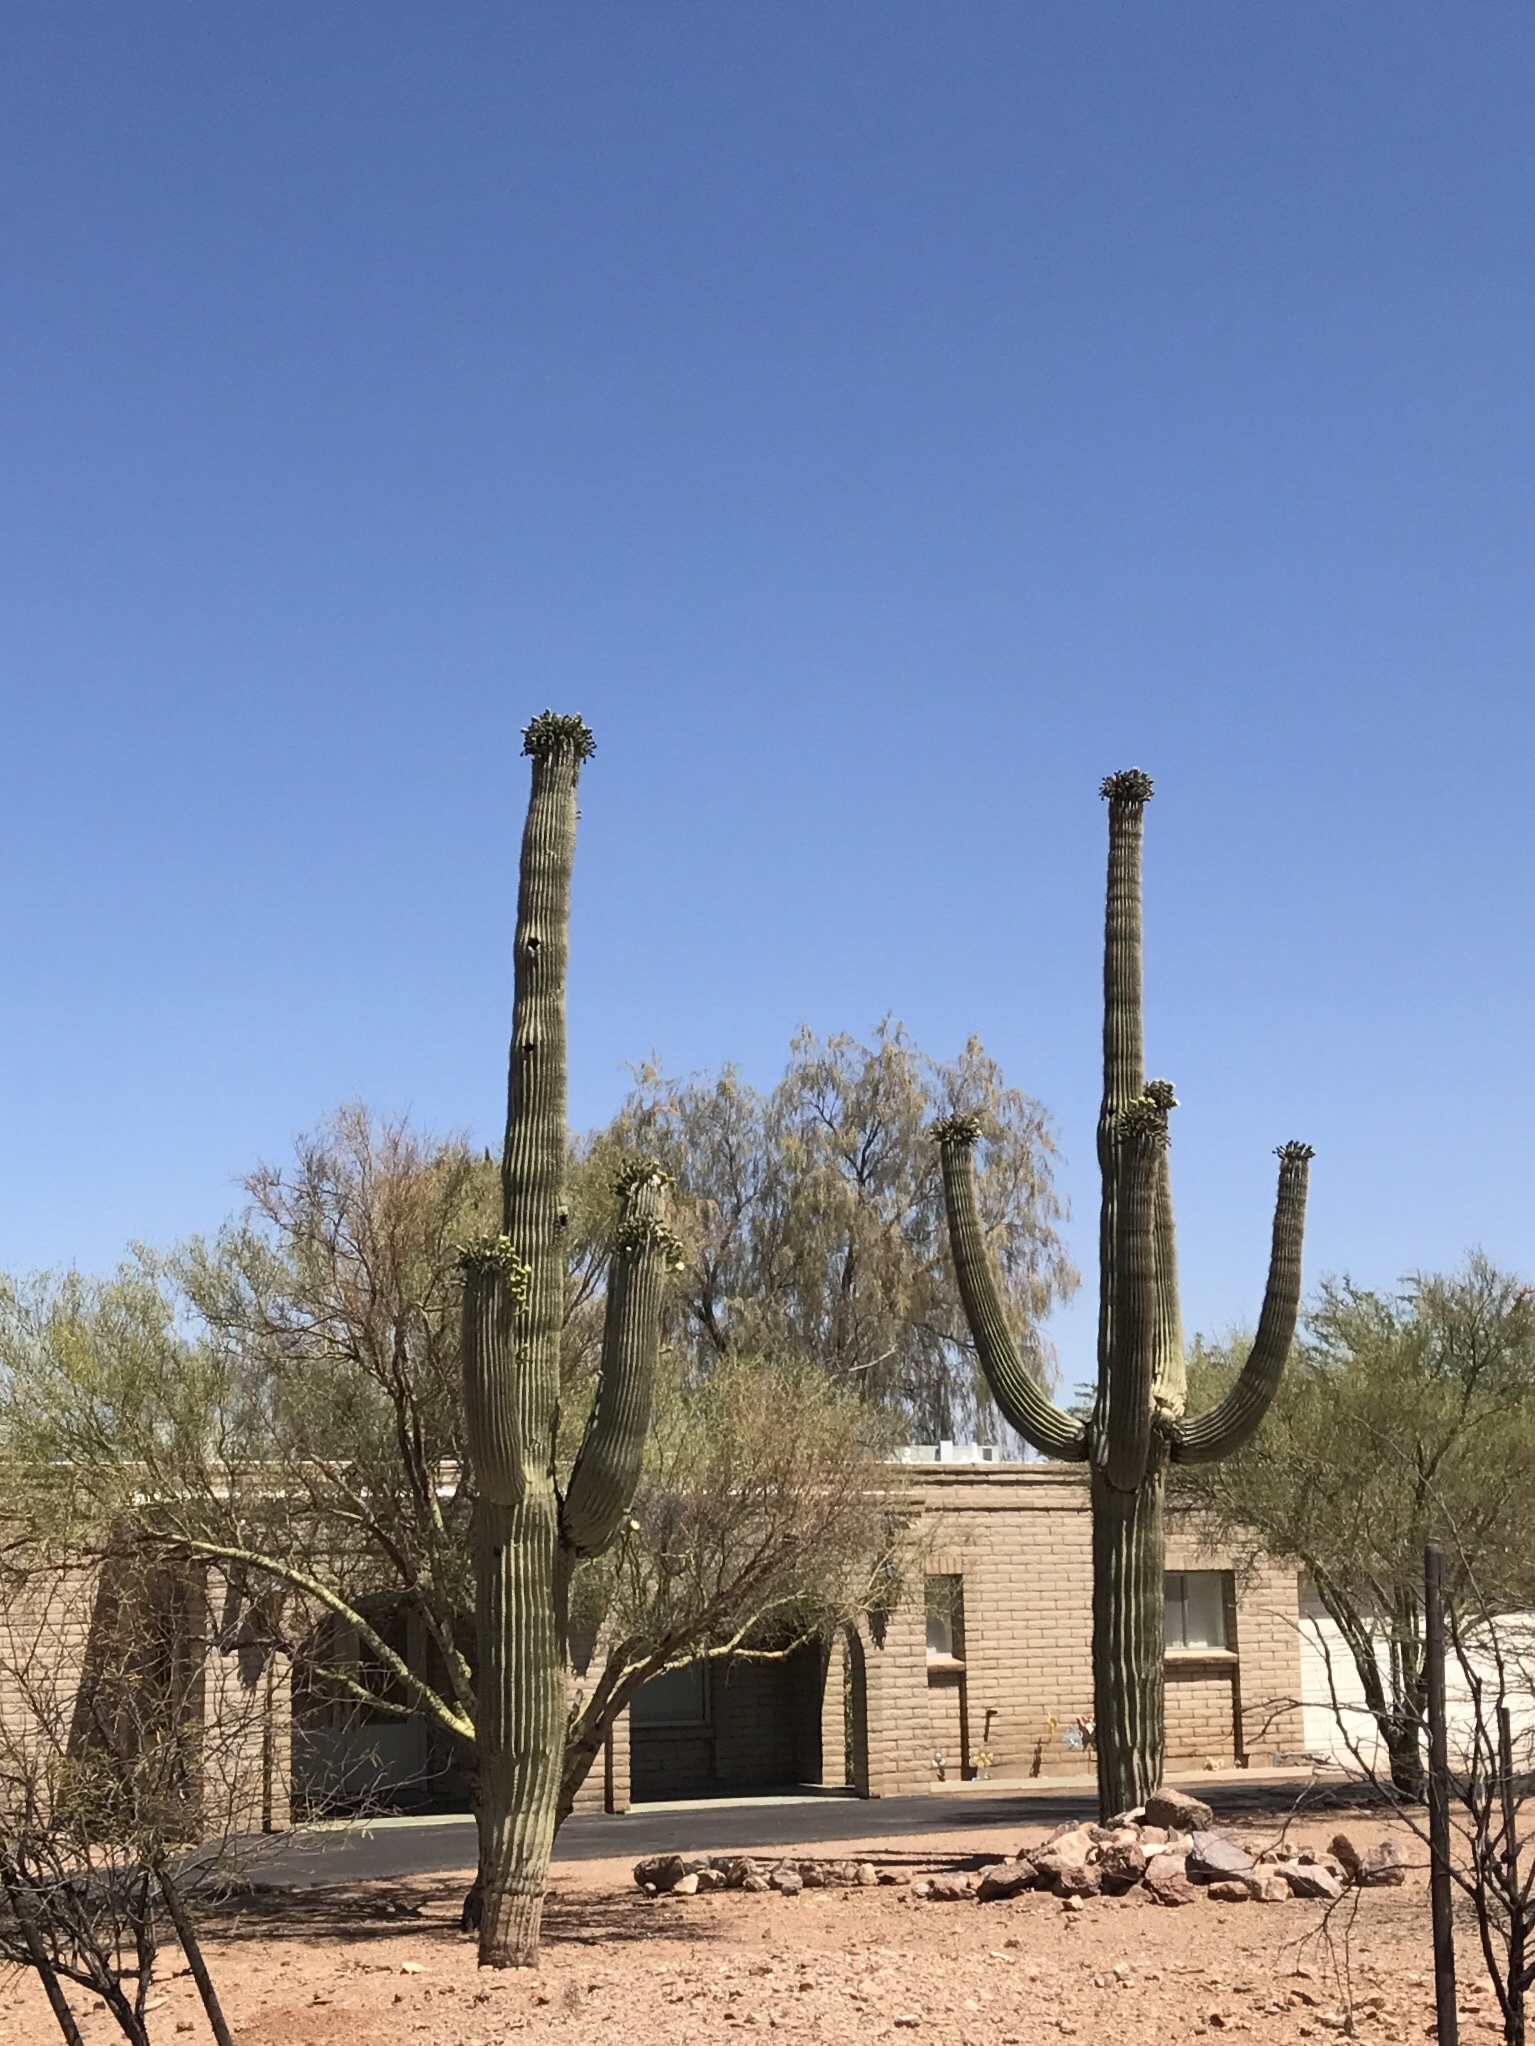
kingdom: Plantae
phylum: Tracheophyta
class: Magnoliopsida
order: Caryophyllales
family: Cactaceae
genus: Carnegiea
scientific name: Carnegiea gigantea
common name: Saguaro
